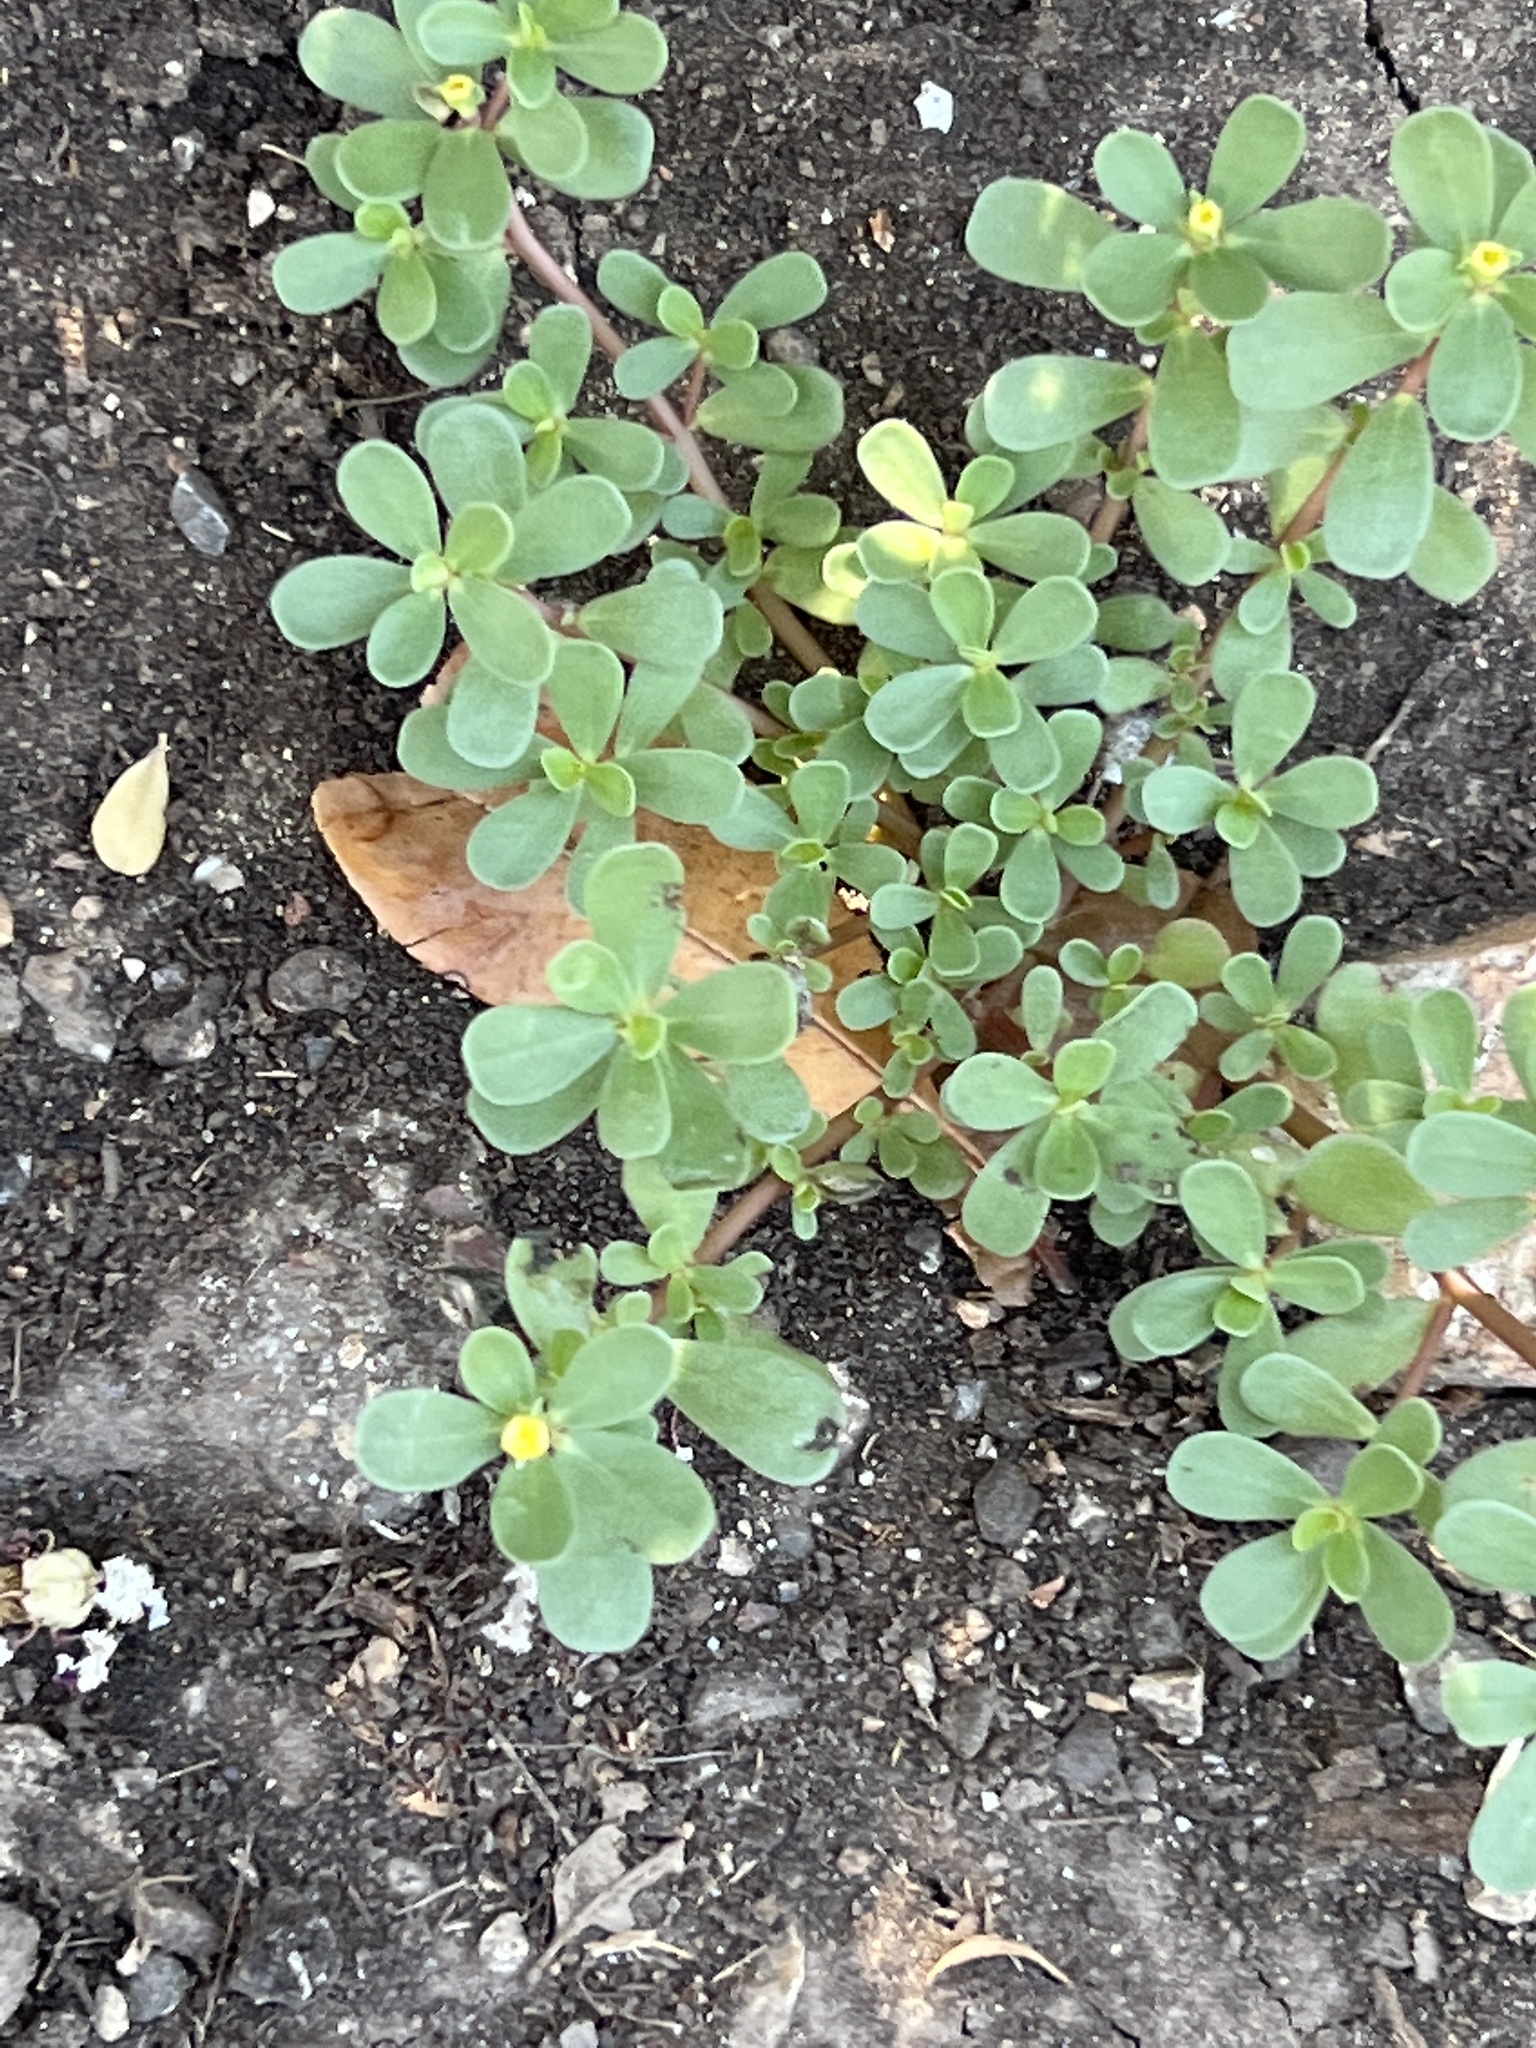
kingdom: Plantae
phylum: Tracheophyta
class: Magnoliopsida
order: Caryophyllales
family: Portulacaceae
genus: Portulaca
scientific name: Portulaca oleracea
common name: Common purslane
